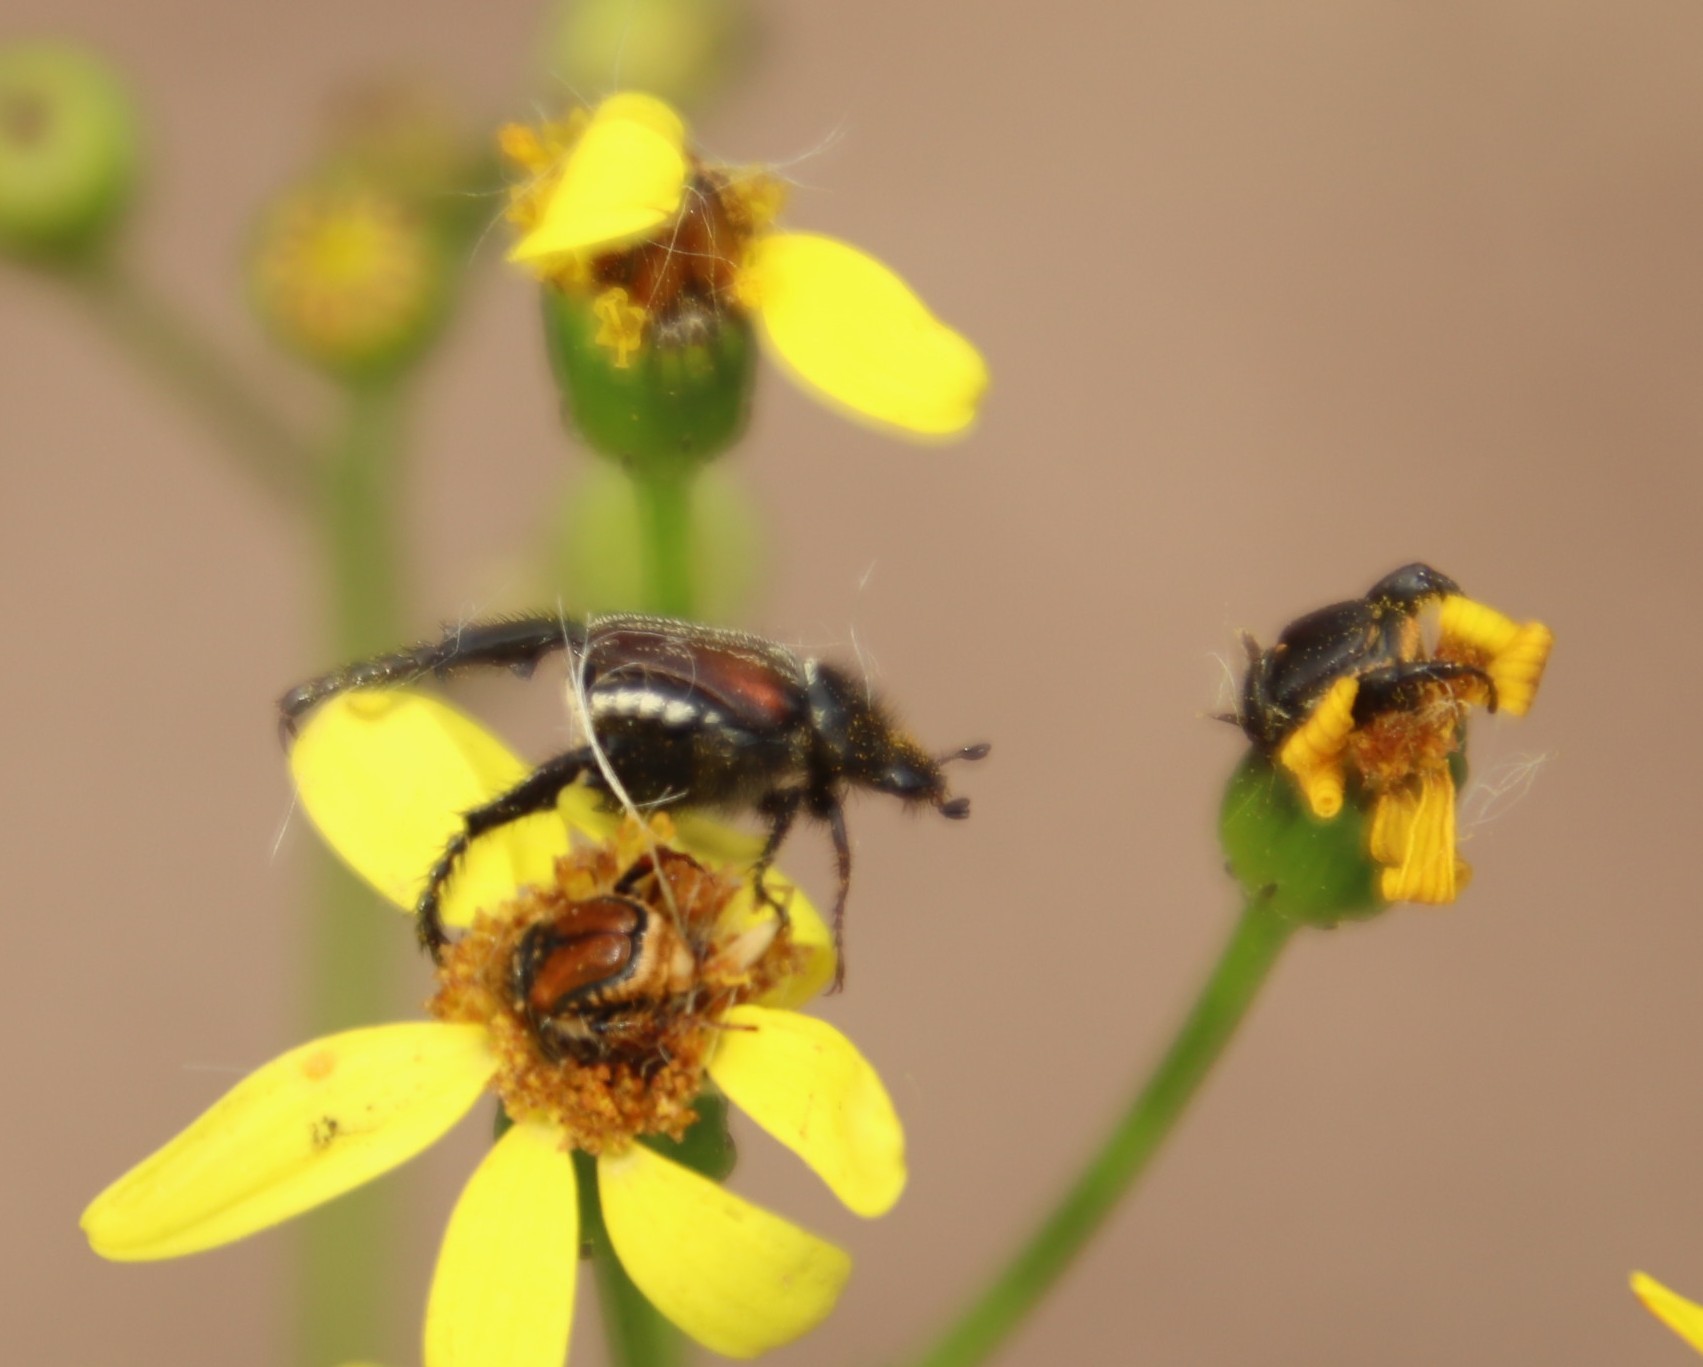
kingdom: Plantae
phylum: Tracheophyta
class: Magnoliopsida
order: Asterales
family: Asteraceae
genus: Senecio
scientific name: Senecio burchellii
